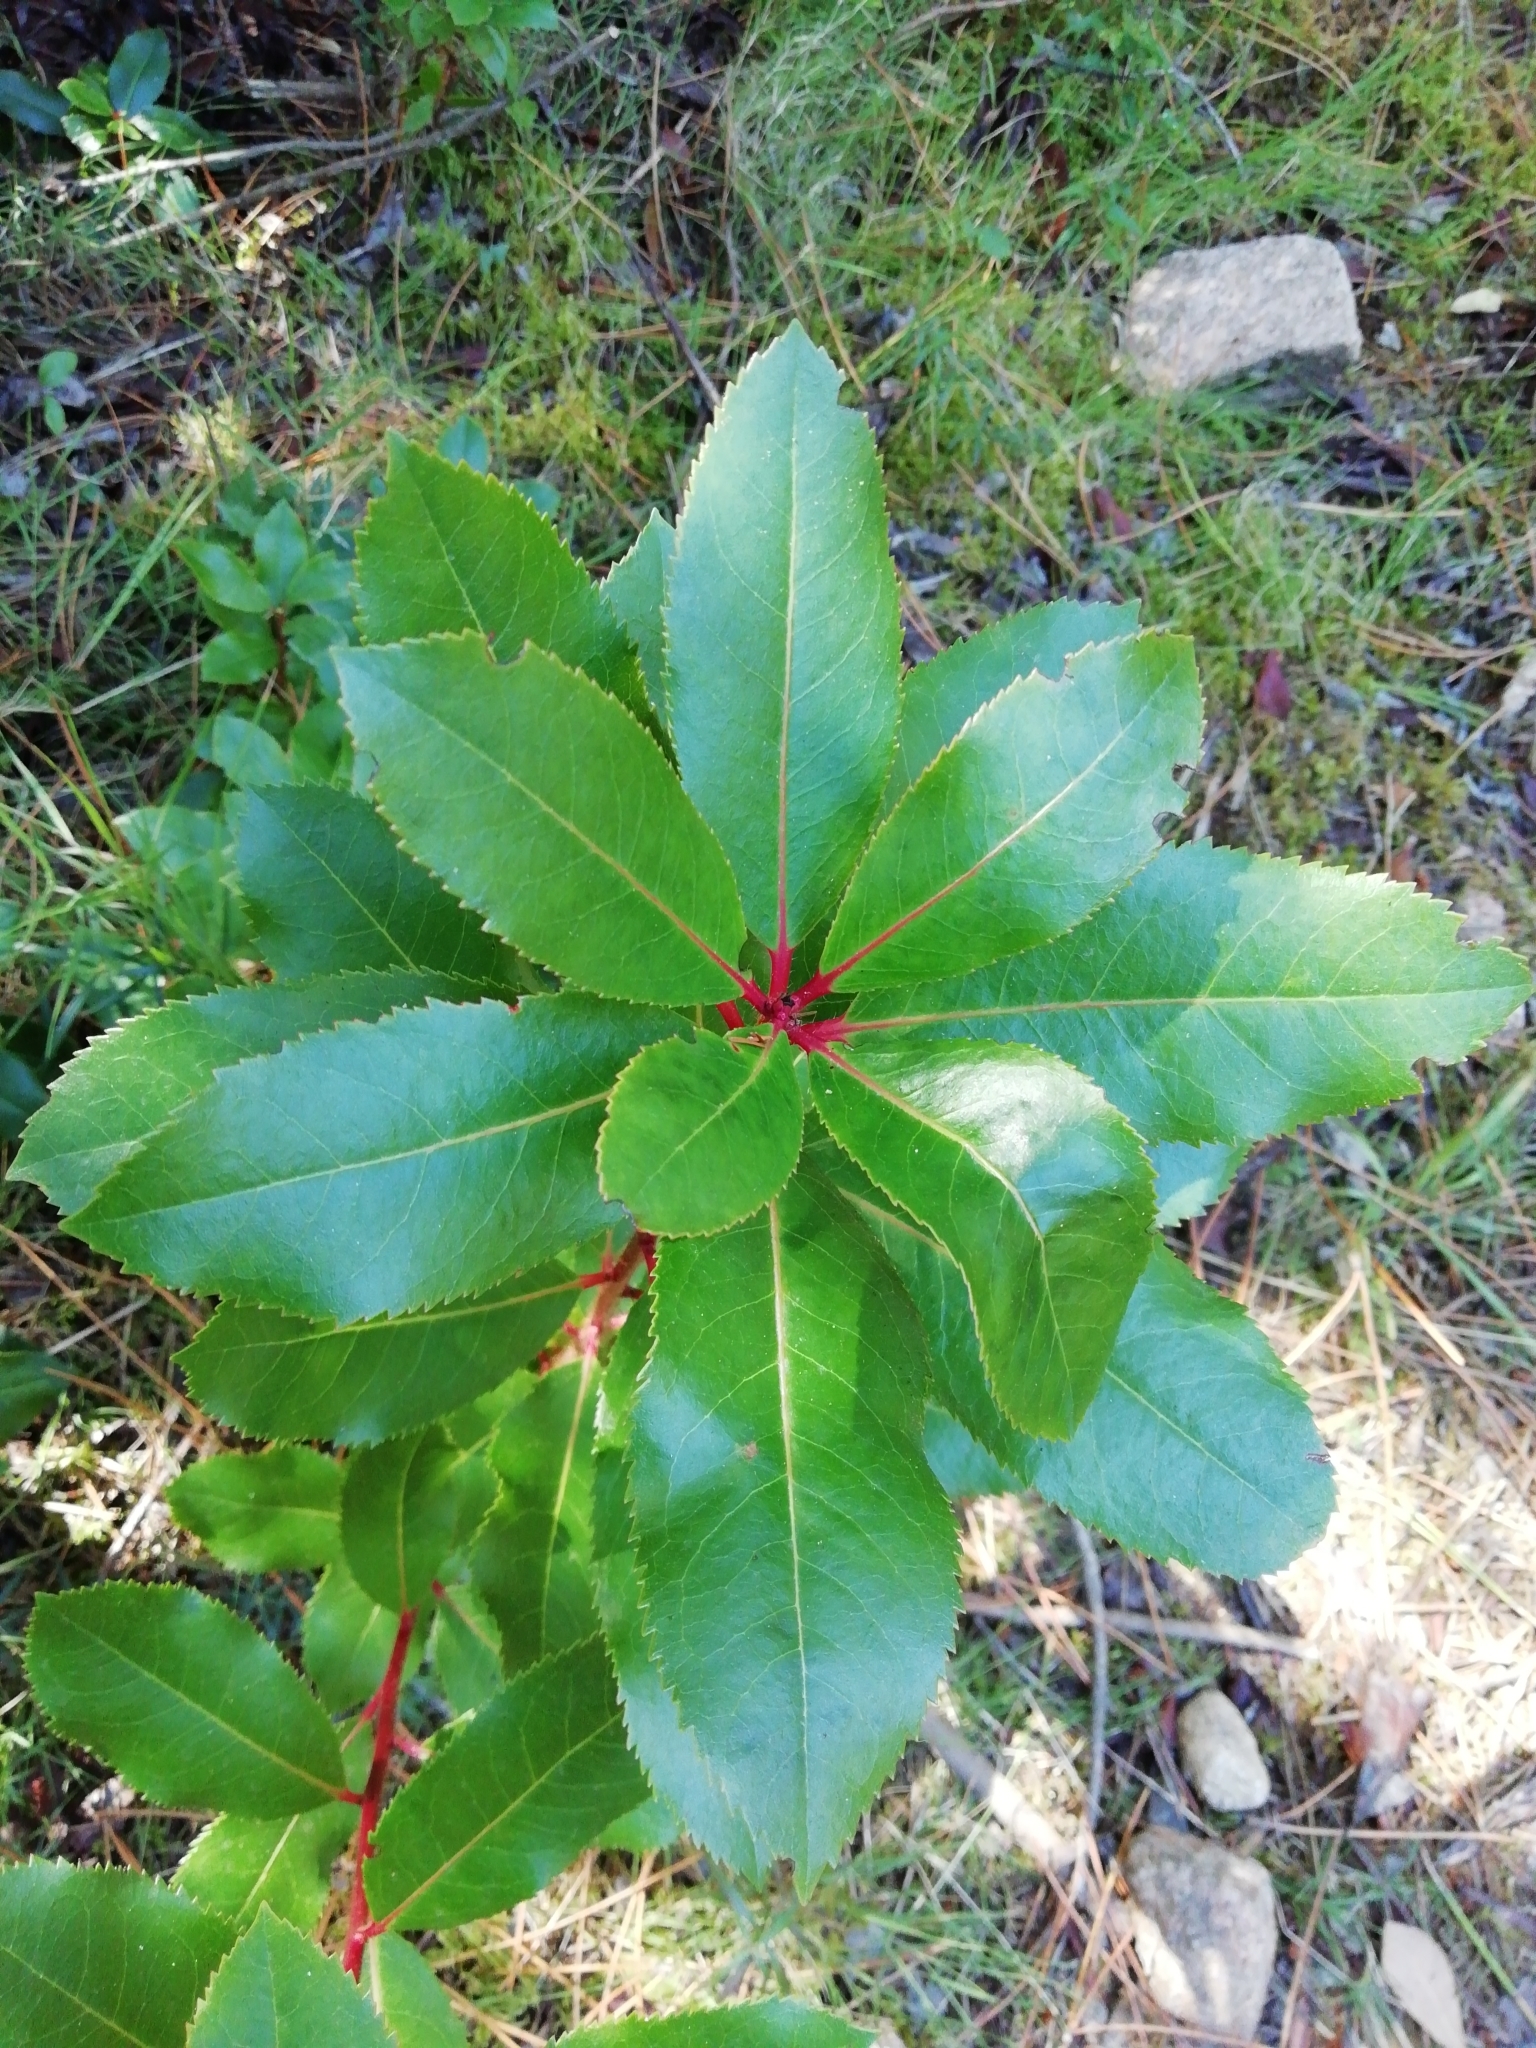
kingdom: Plantae
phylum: Tracheophyta
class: Magnoliopsida
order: Ericales
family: Ericaceae
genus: Arbutus
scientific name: Arbutus unedo
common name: Strawberry-tree
